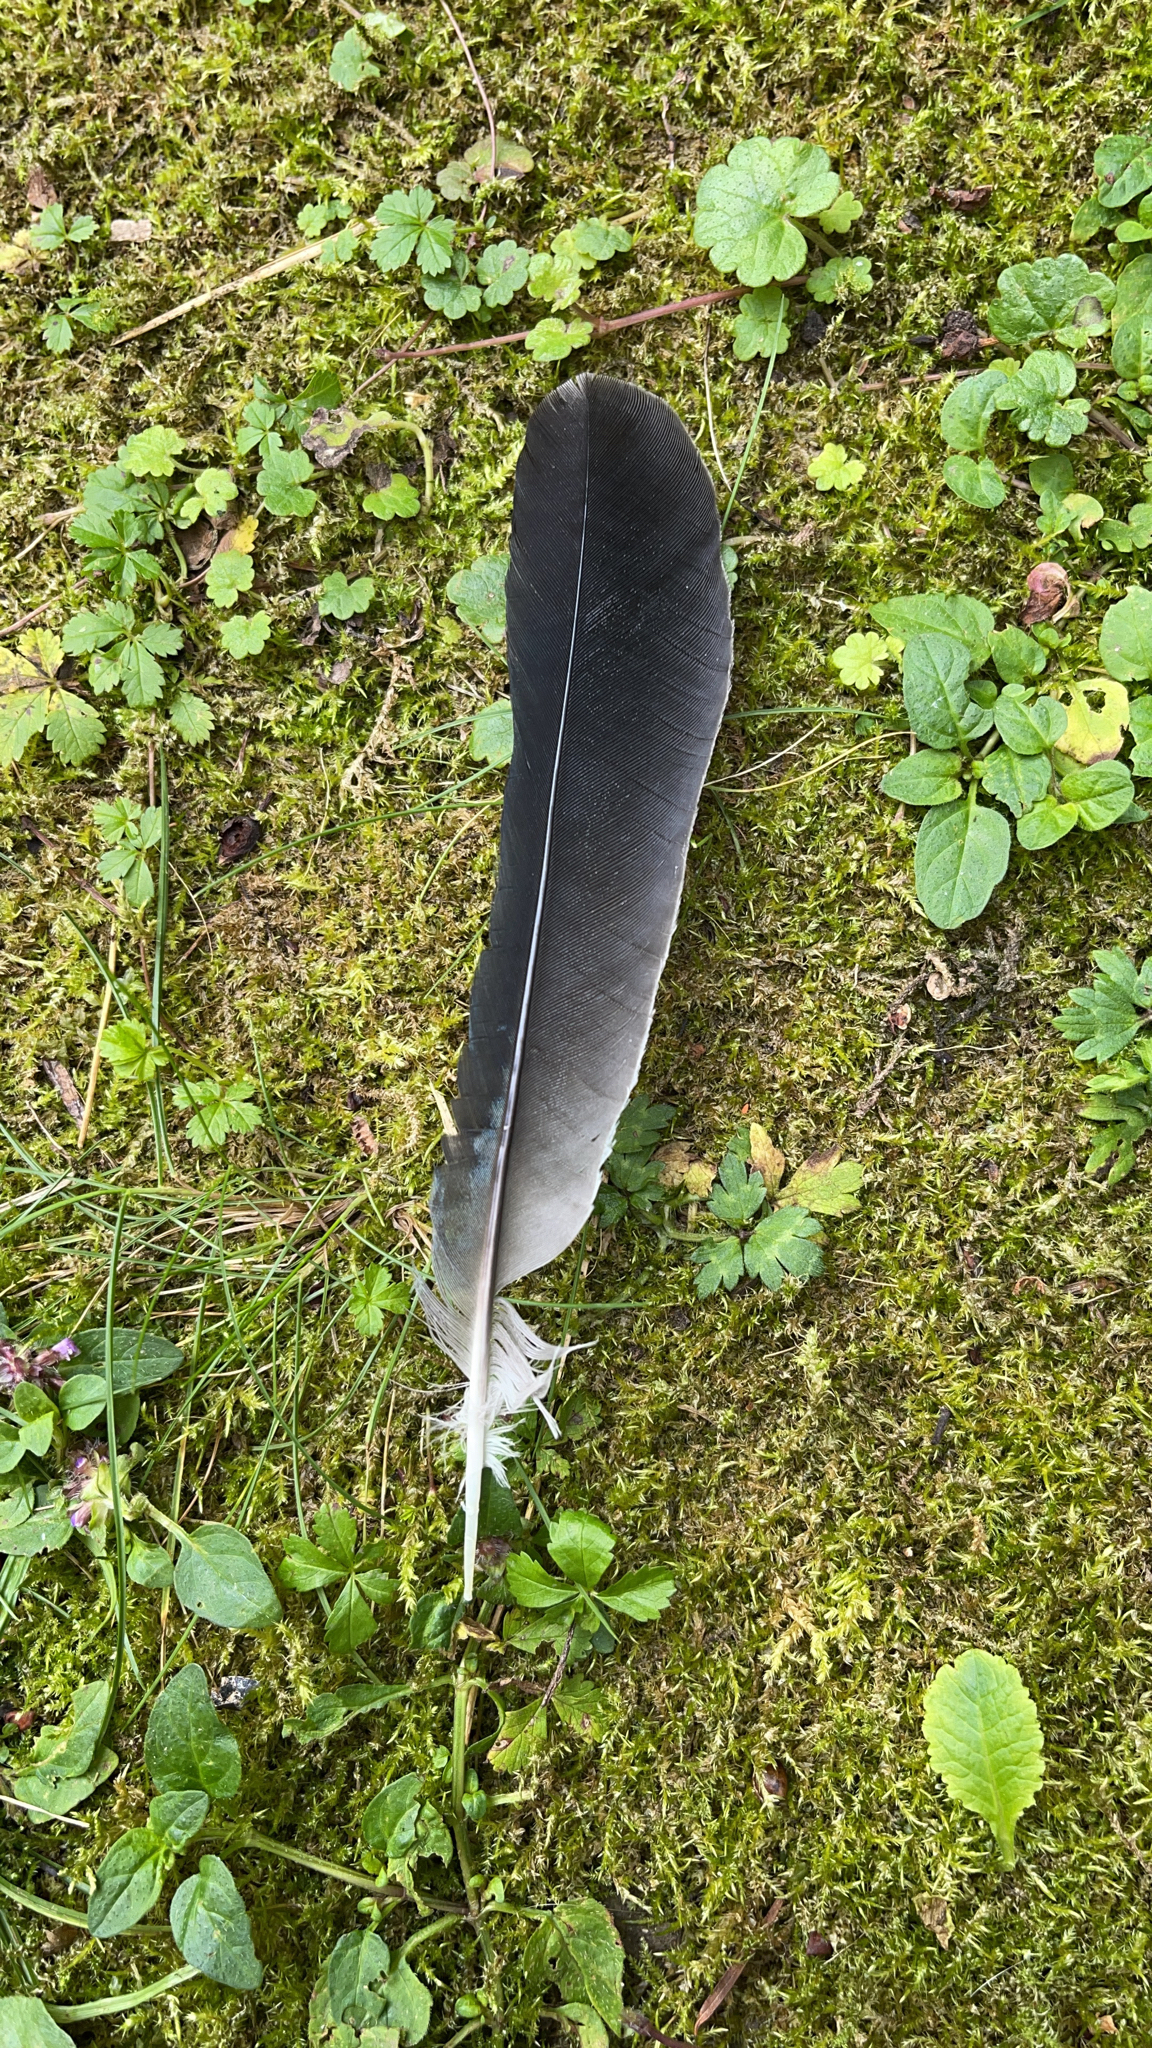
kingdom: Animalia
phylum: Chordata
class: Aves
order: Passeriformes
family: Corvidae
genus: Garrulus
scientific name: Garrulus glandarius
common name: Eurasian jay
